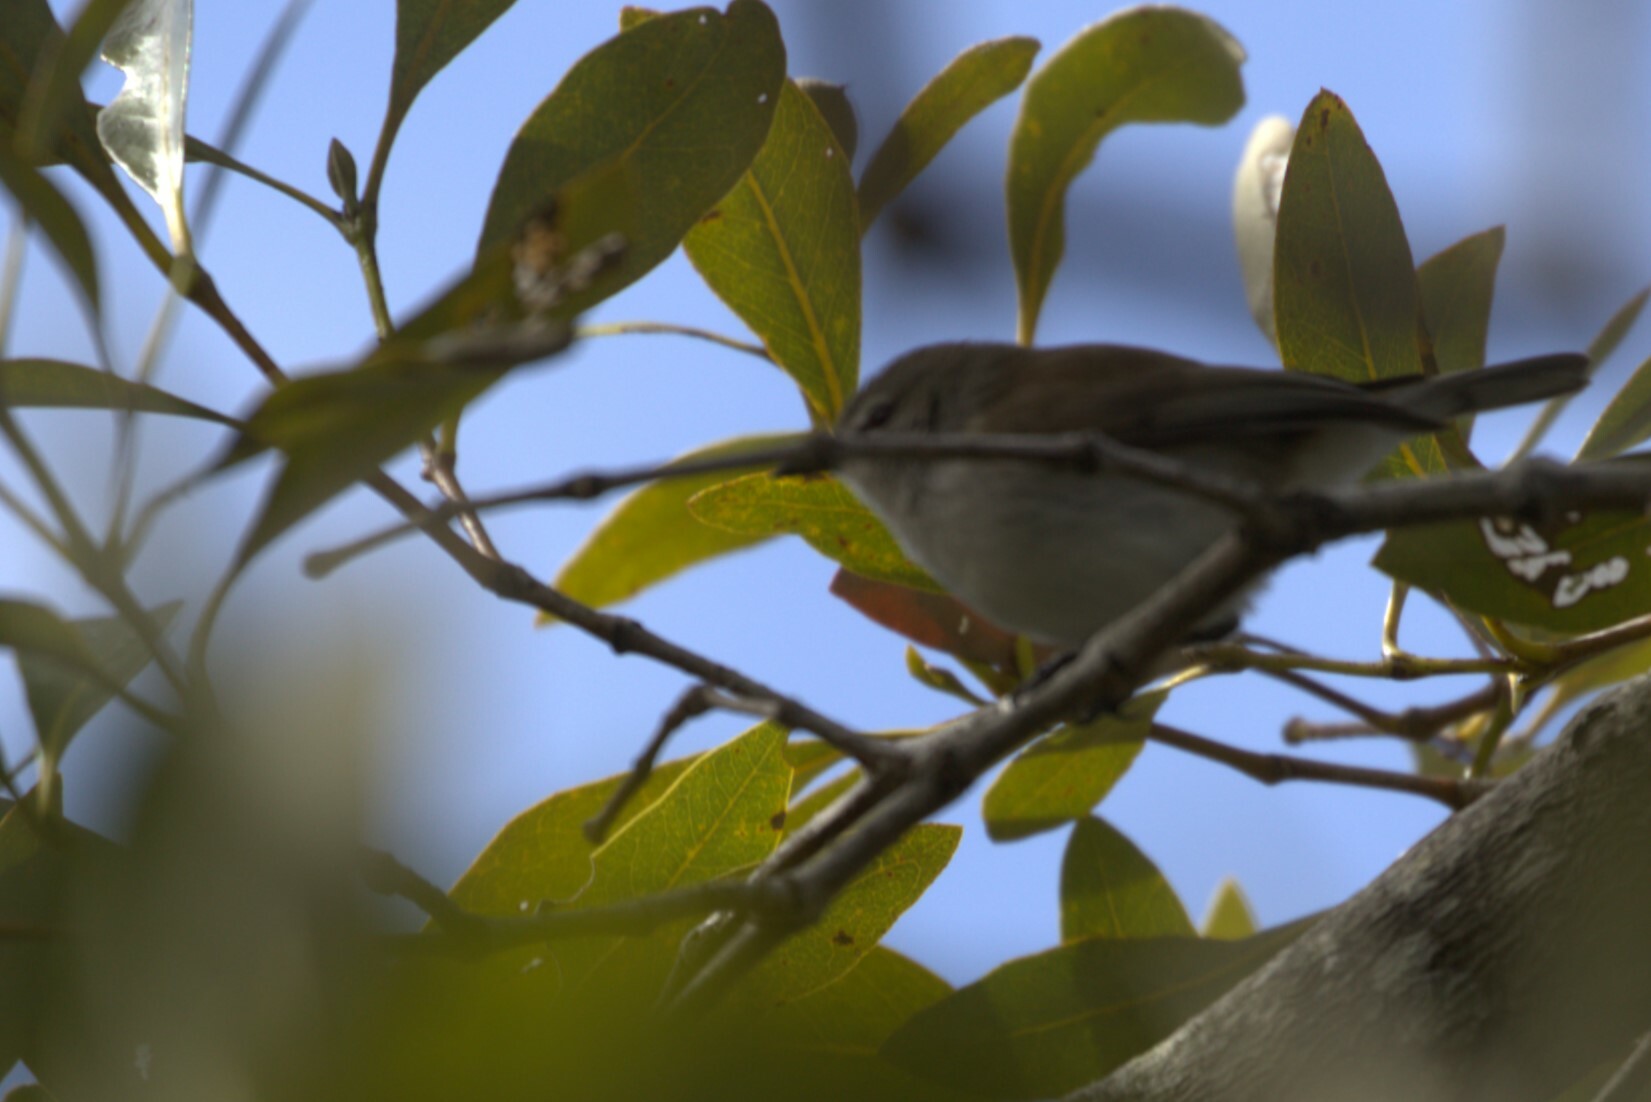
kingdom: Animalia
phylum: Chordata
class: Aves
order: Passeriformes
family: Acanthizidae
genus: Gerygone
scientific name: Gerygone levigaster
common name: Mangrove gerygone
